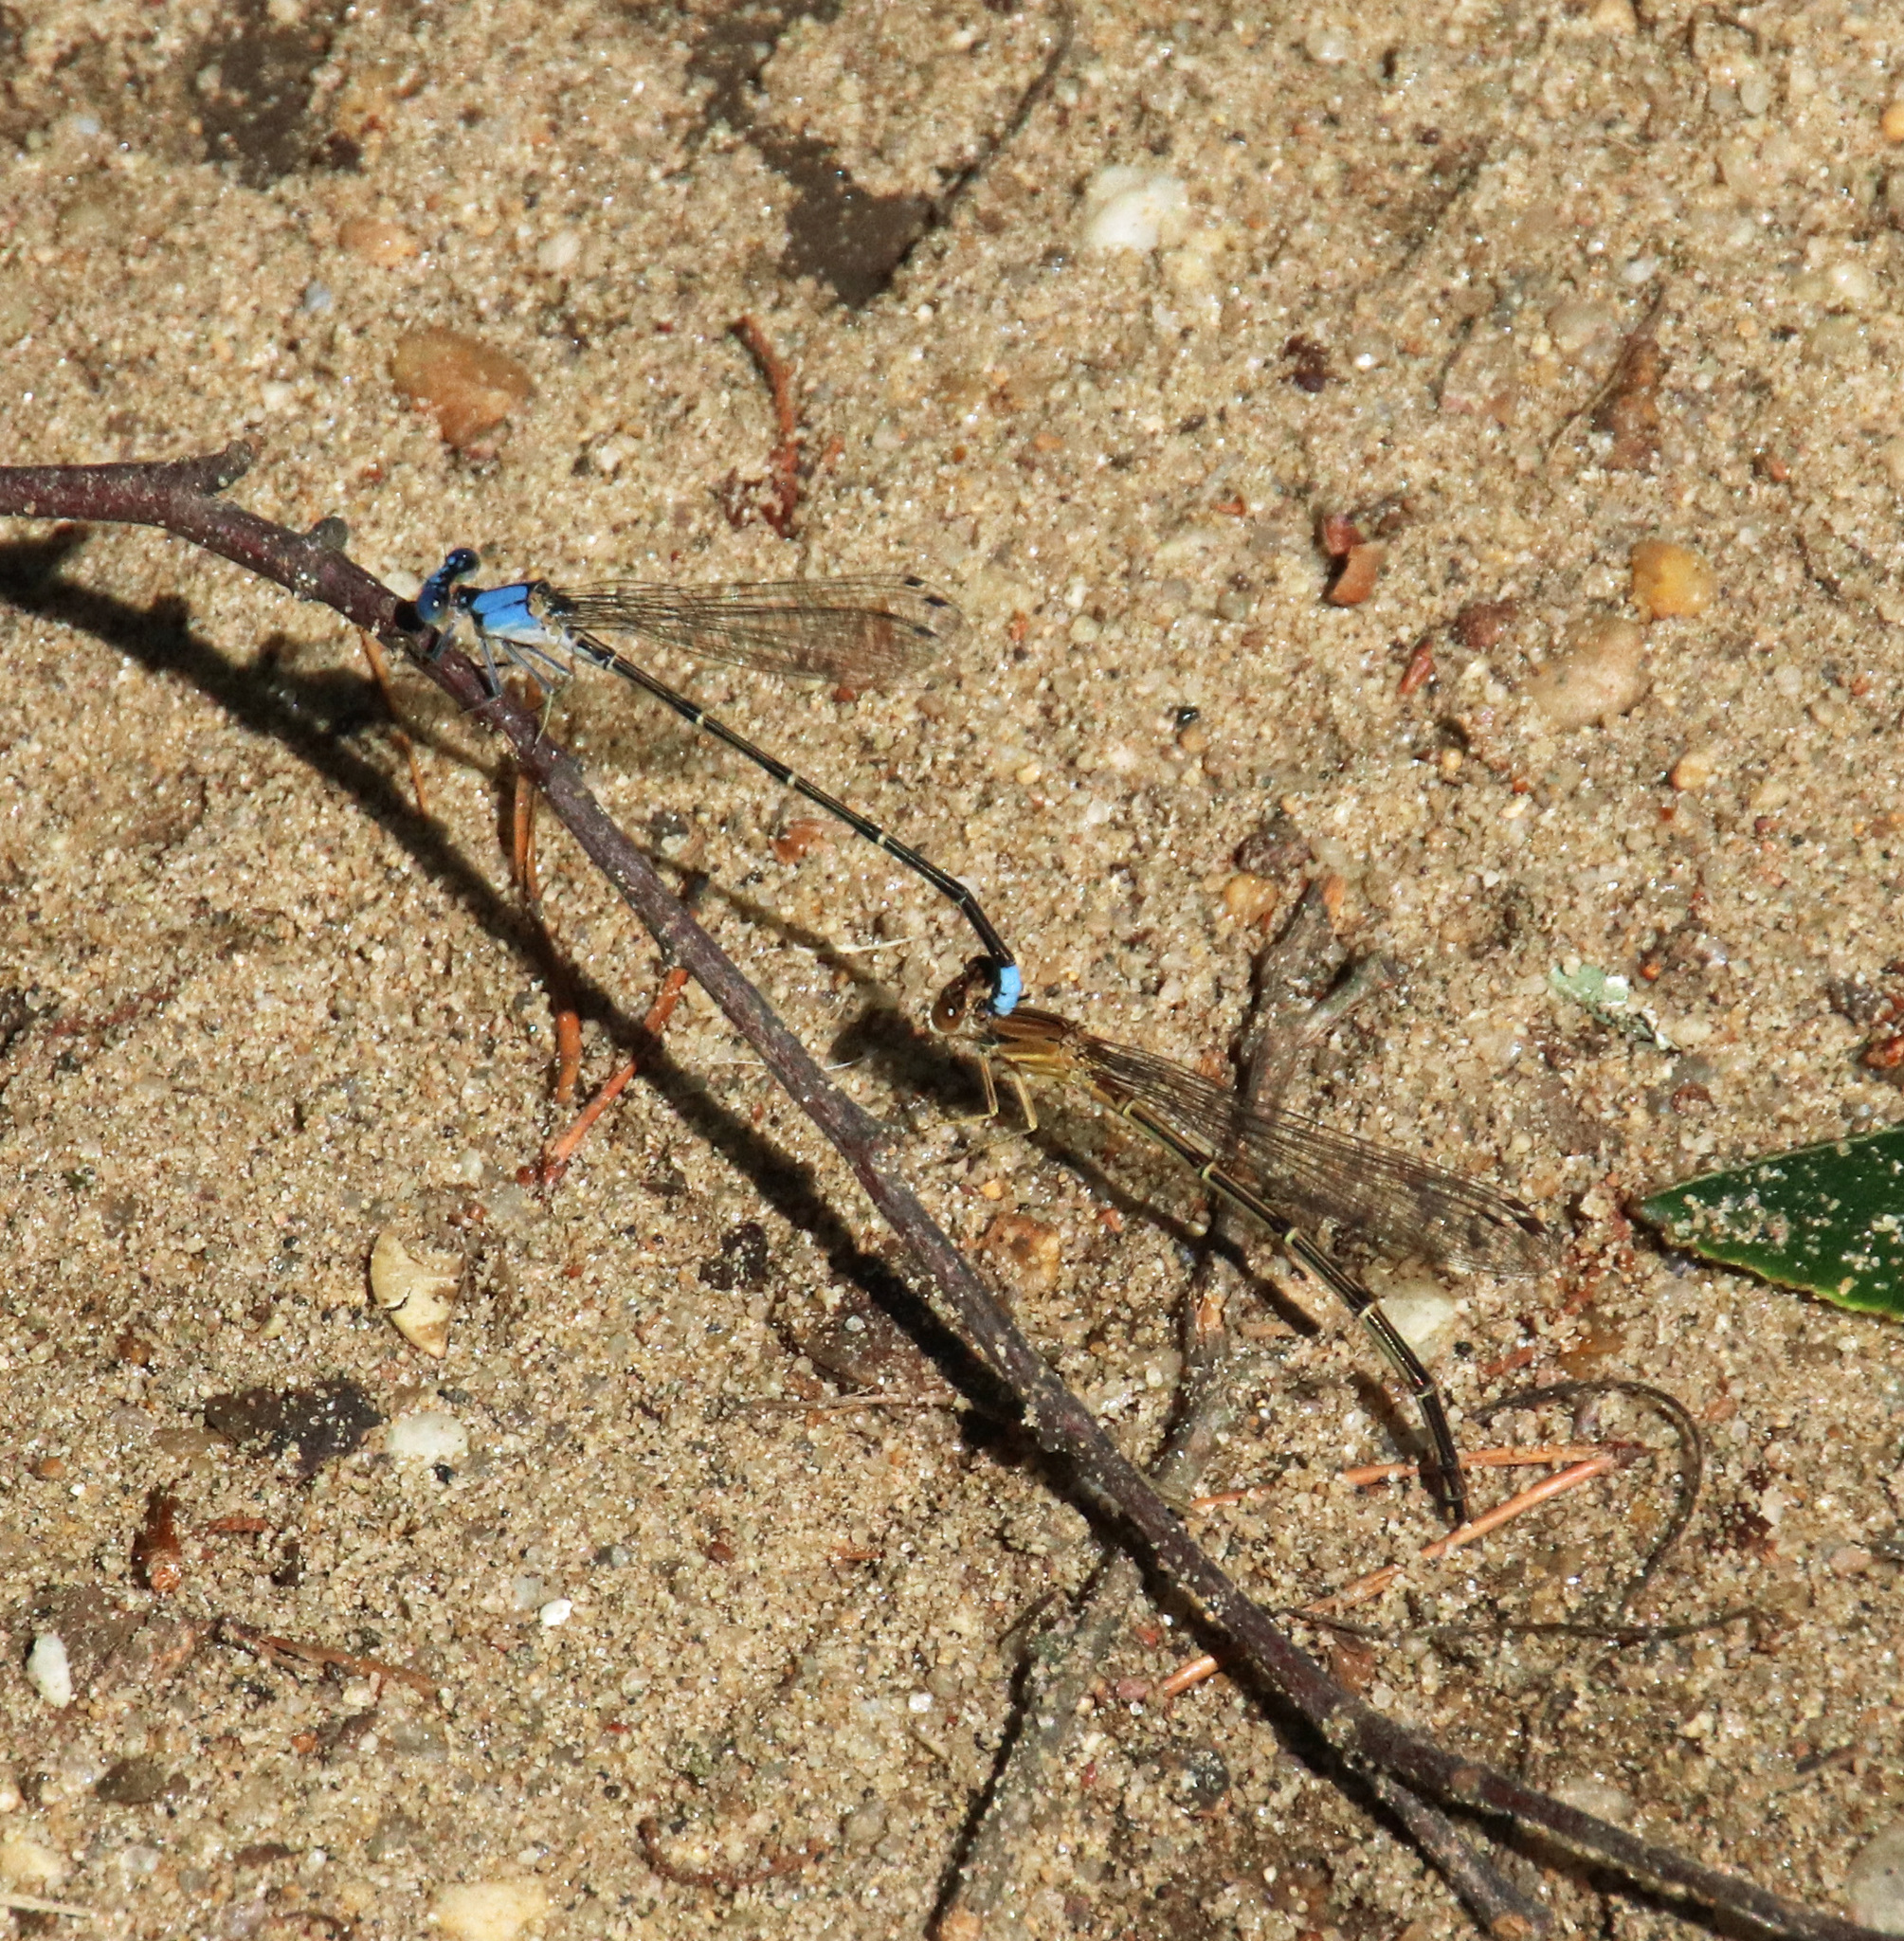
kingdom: Animalia
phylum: Arthropoda
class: Insecta
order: Odonata
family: Coenagrionidae
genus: Argia
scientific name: Argia apicalis
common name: Blue-fronted dancer
